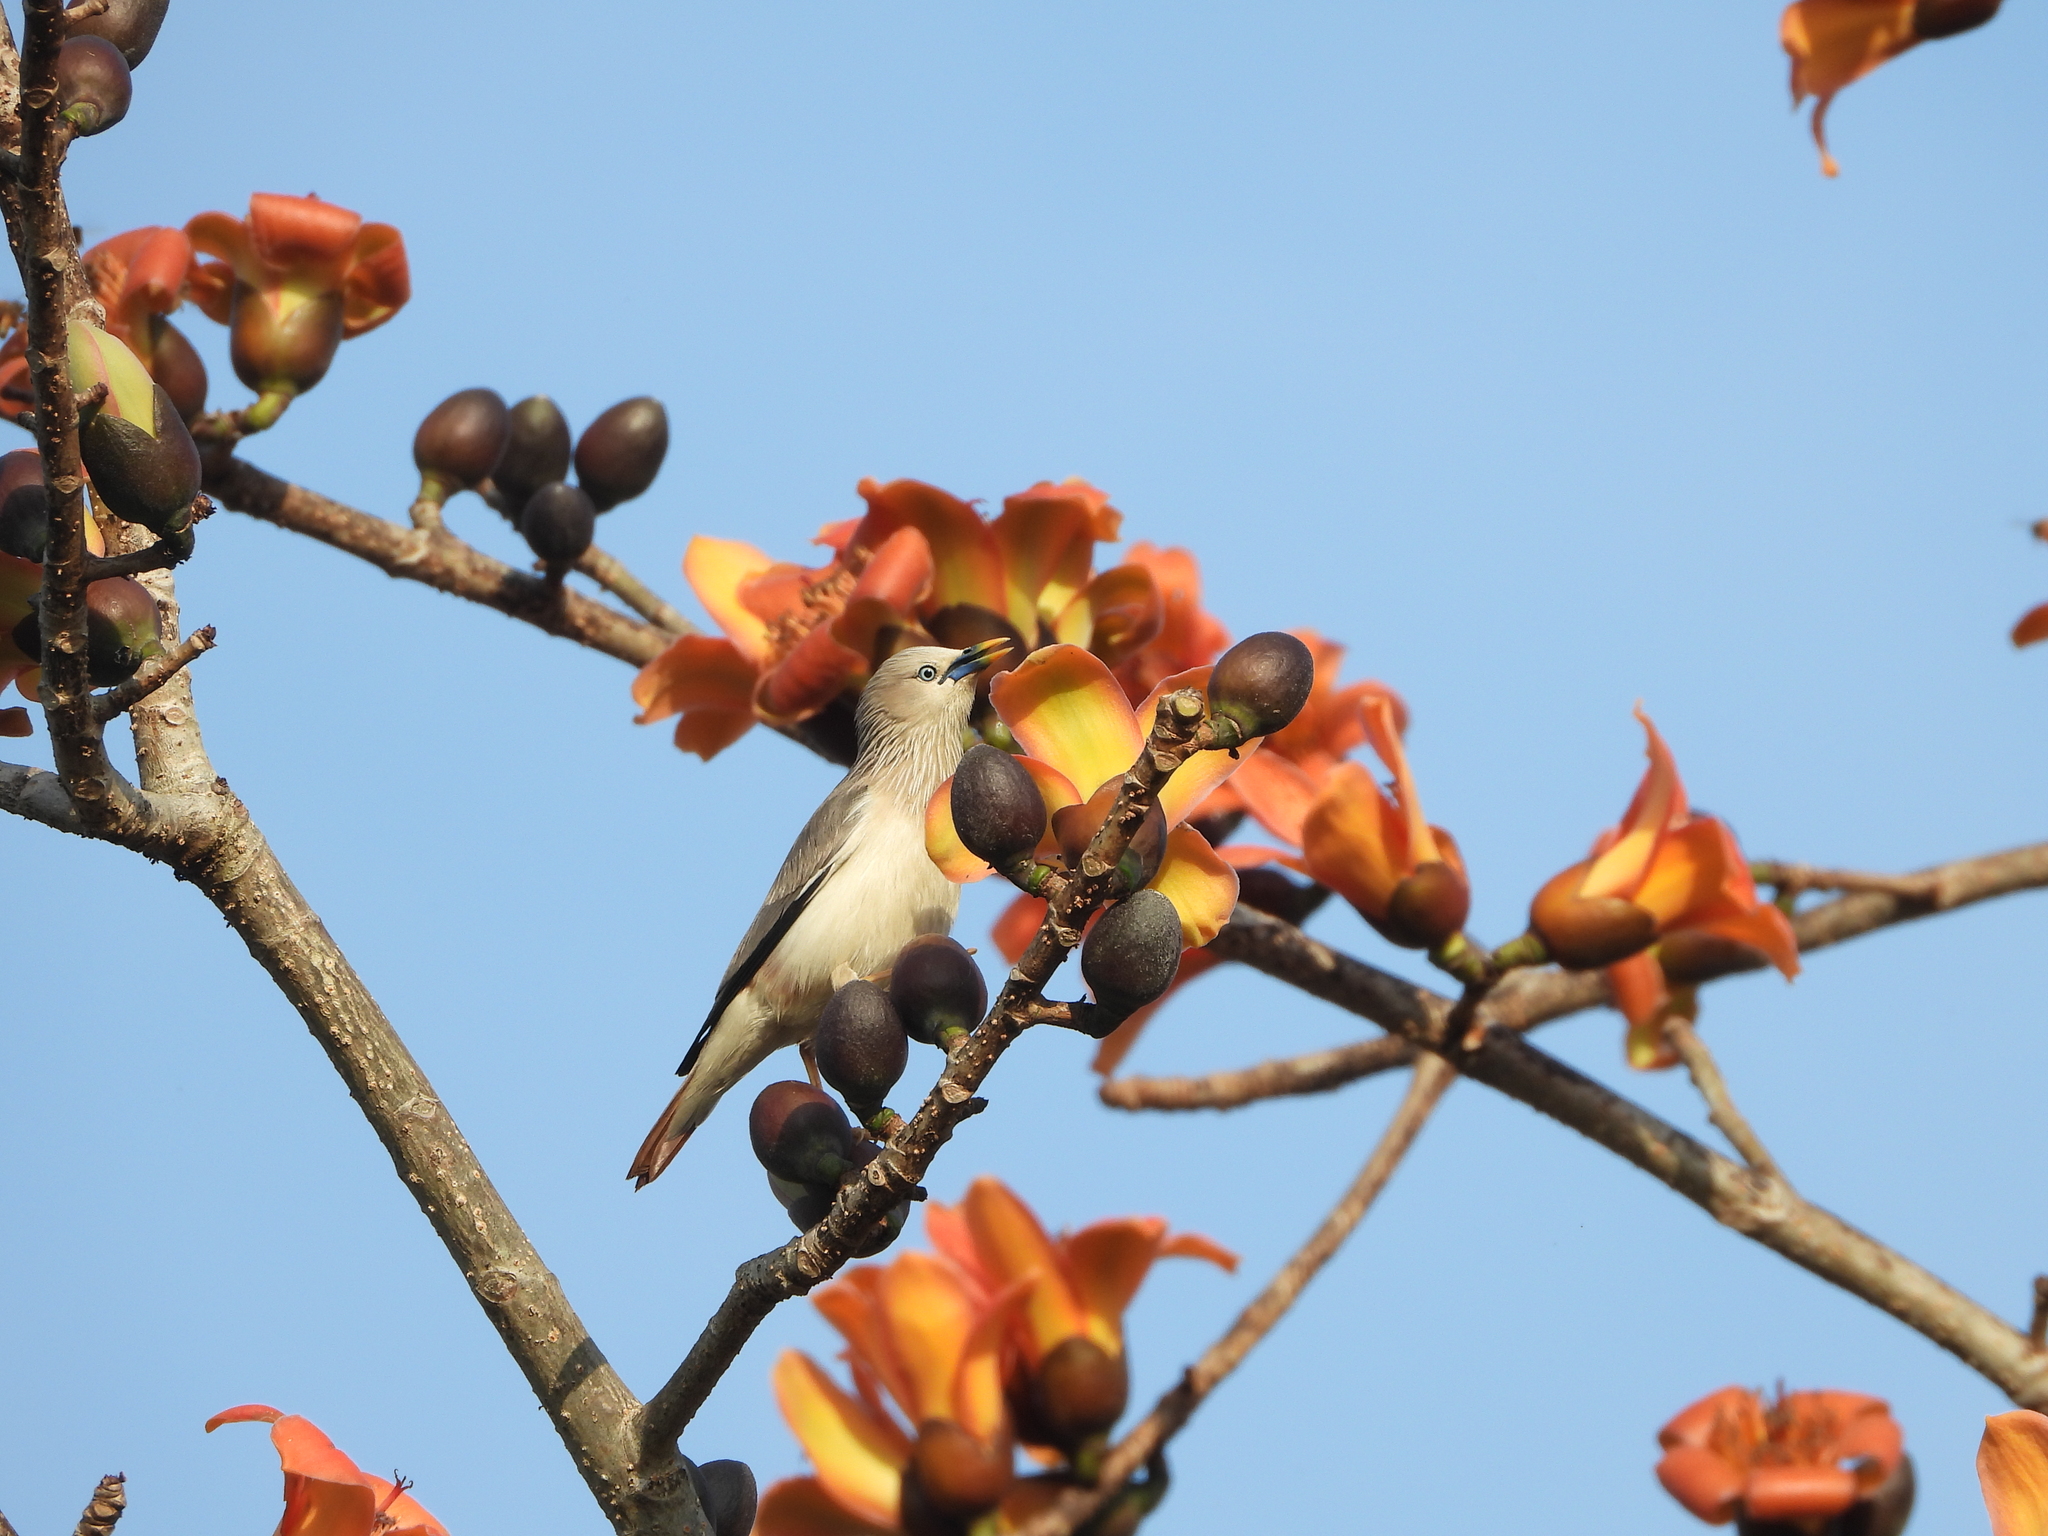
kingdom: Animalia
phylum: Chordata
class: Aves
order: Passeriformes
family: Sturnidae
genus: Sturnia
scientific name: Sturnia malabarica
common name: Chestnut-tailed starling
